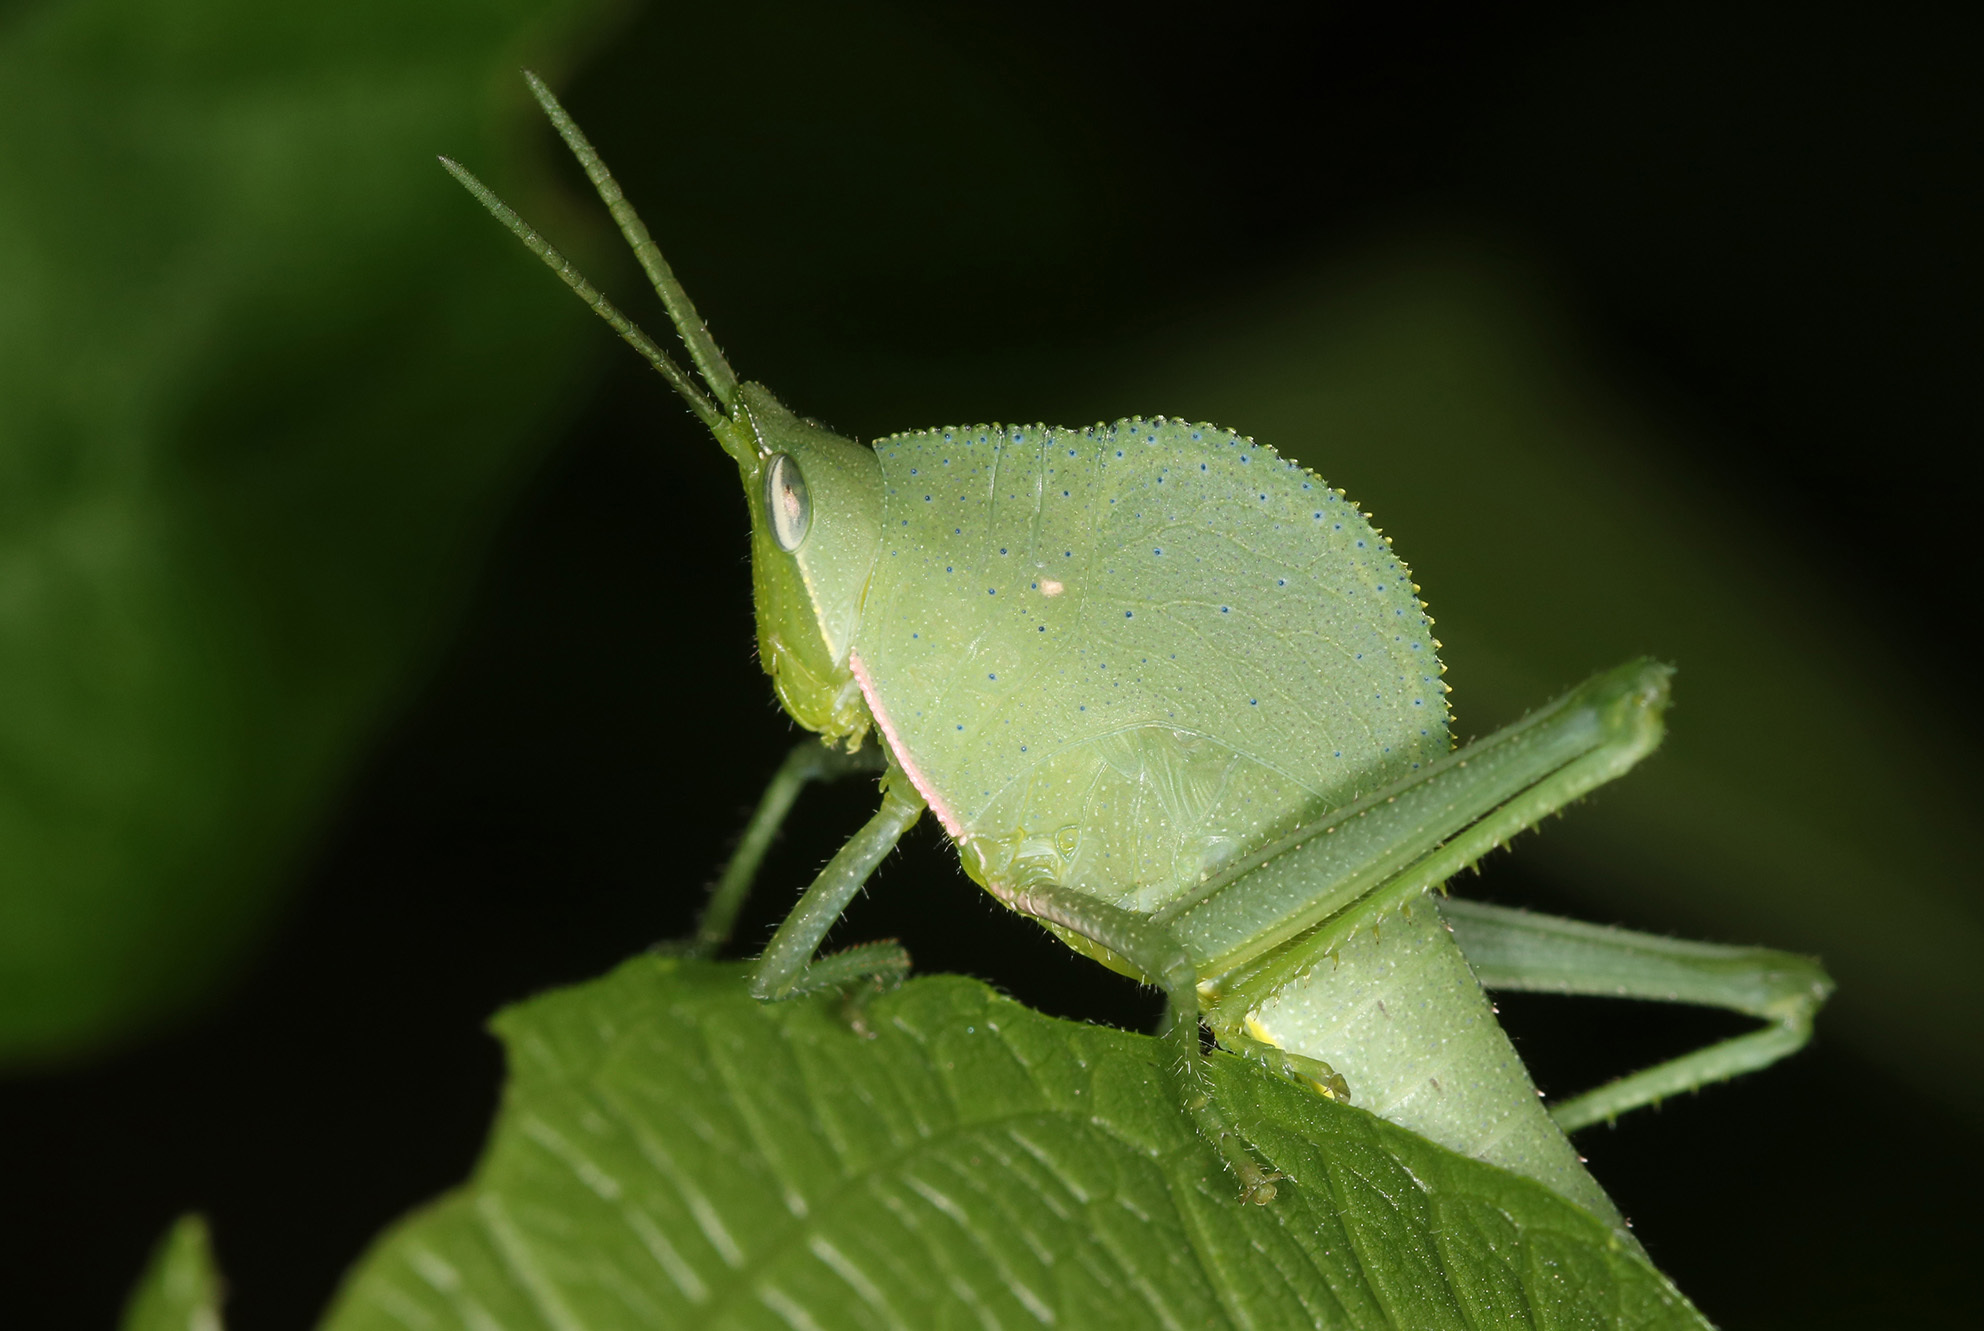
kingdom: Animalia
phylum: Arthropoda
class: Insecta
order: Orthoptera
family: Romaleidae
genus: Prionolopha
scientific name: Prionolopha serrata
